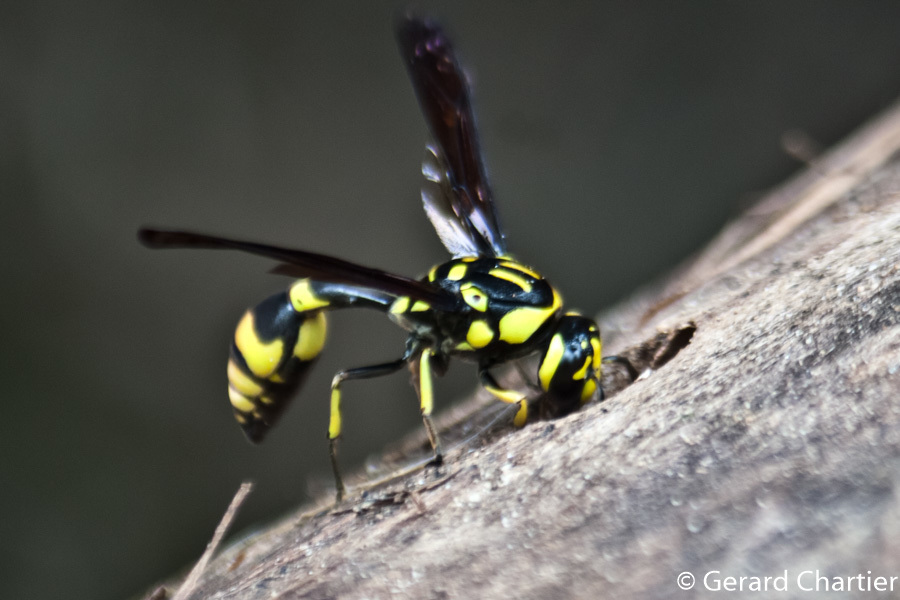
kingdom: Animalia
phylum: Arthropoda
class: Insecta
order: Hymenoptera
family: Eumenidae
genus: Pareumenes
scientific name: Pareumenes quadrispinosus
